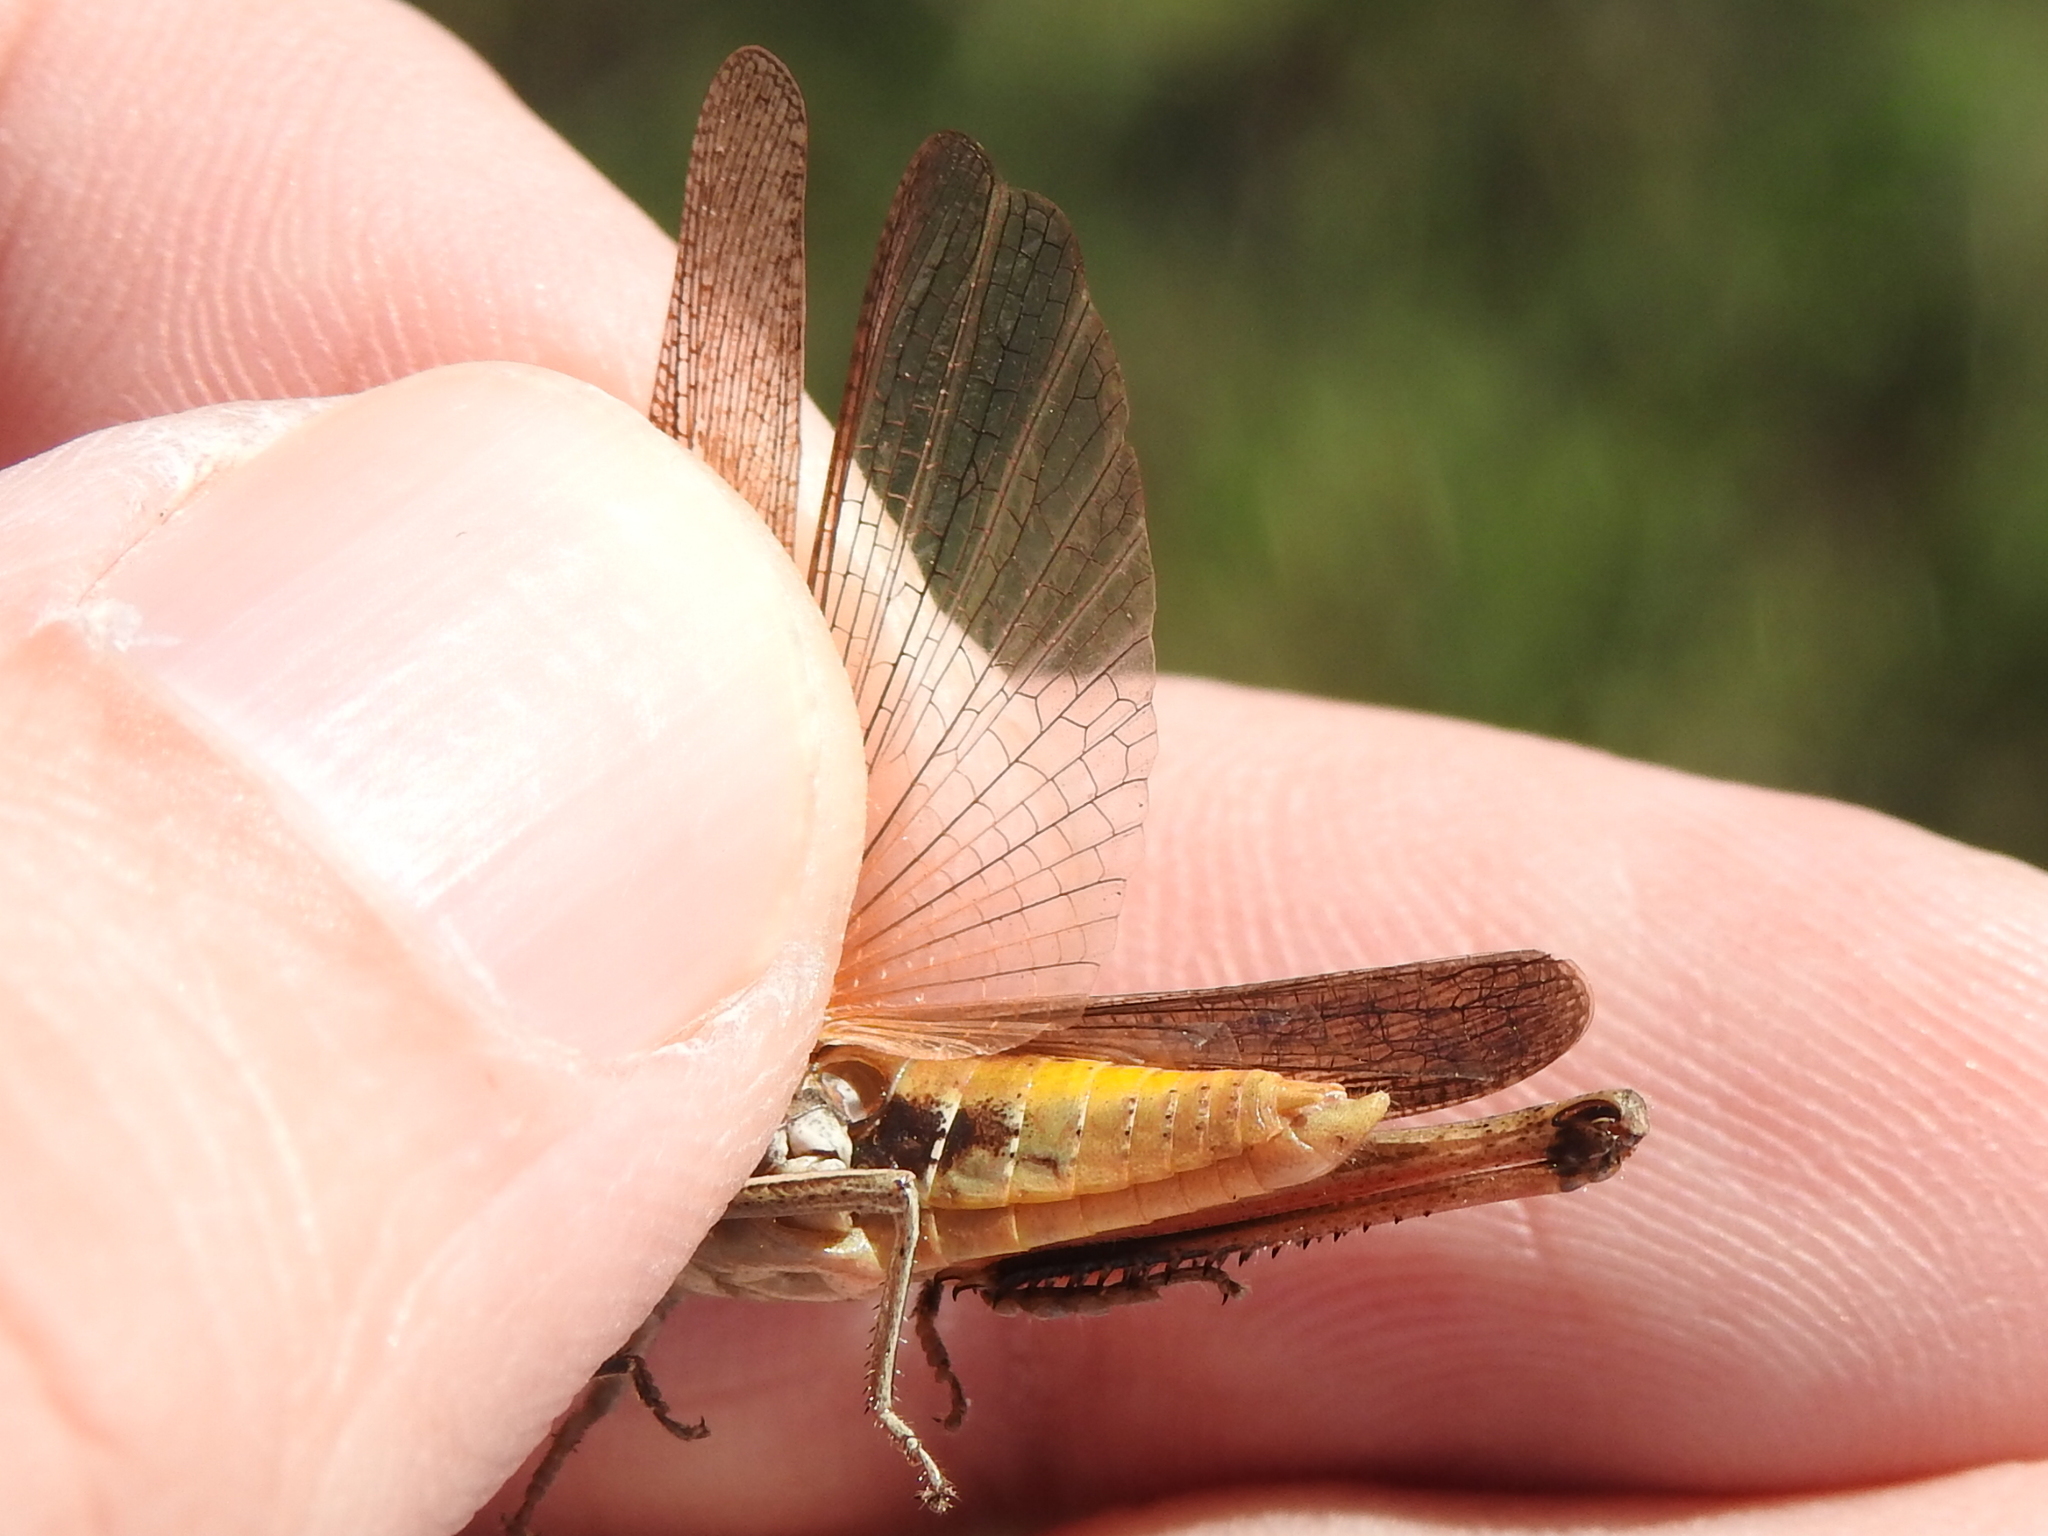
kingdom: Animalia
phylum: Arthropoda
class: Insecta
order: Orthoptera
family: Acrididae
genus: Amblytropidia
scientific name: Amblytropidia mysteca
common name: Brown winter grasshopper
